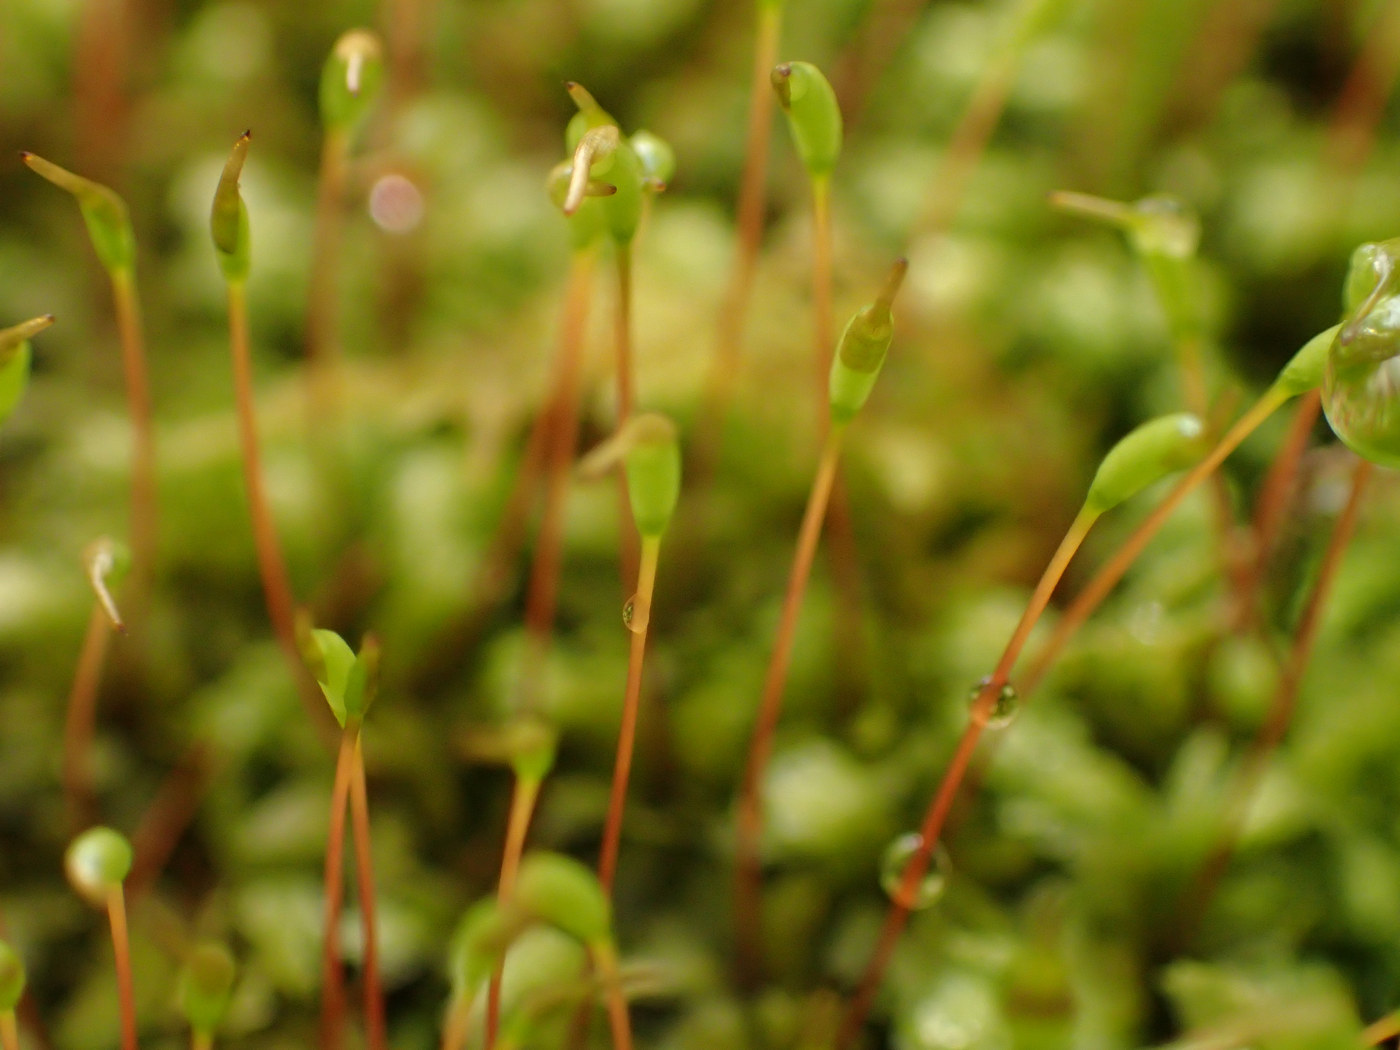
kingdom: Plantae
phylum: Bryophyta
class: Bryopsida
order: Aulacomniales
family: Aulacomniaceae
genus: Aulacomnium
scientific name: Aulacomnium heterostichum
